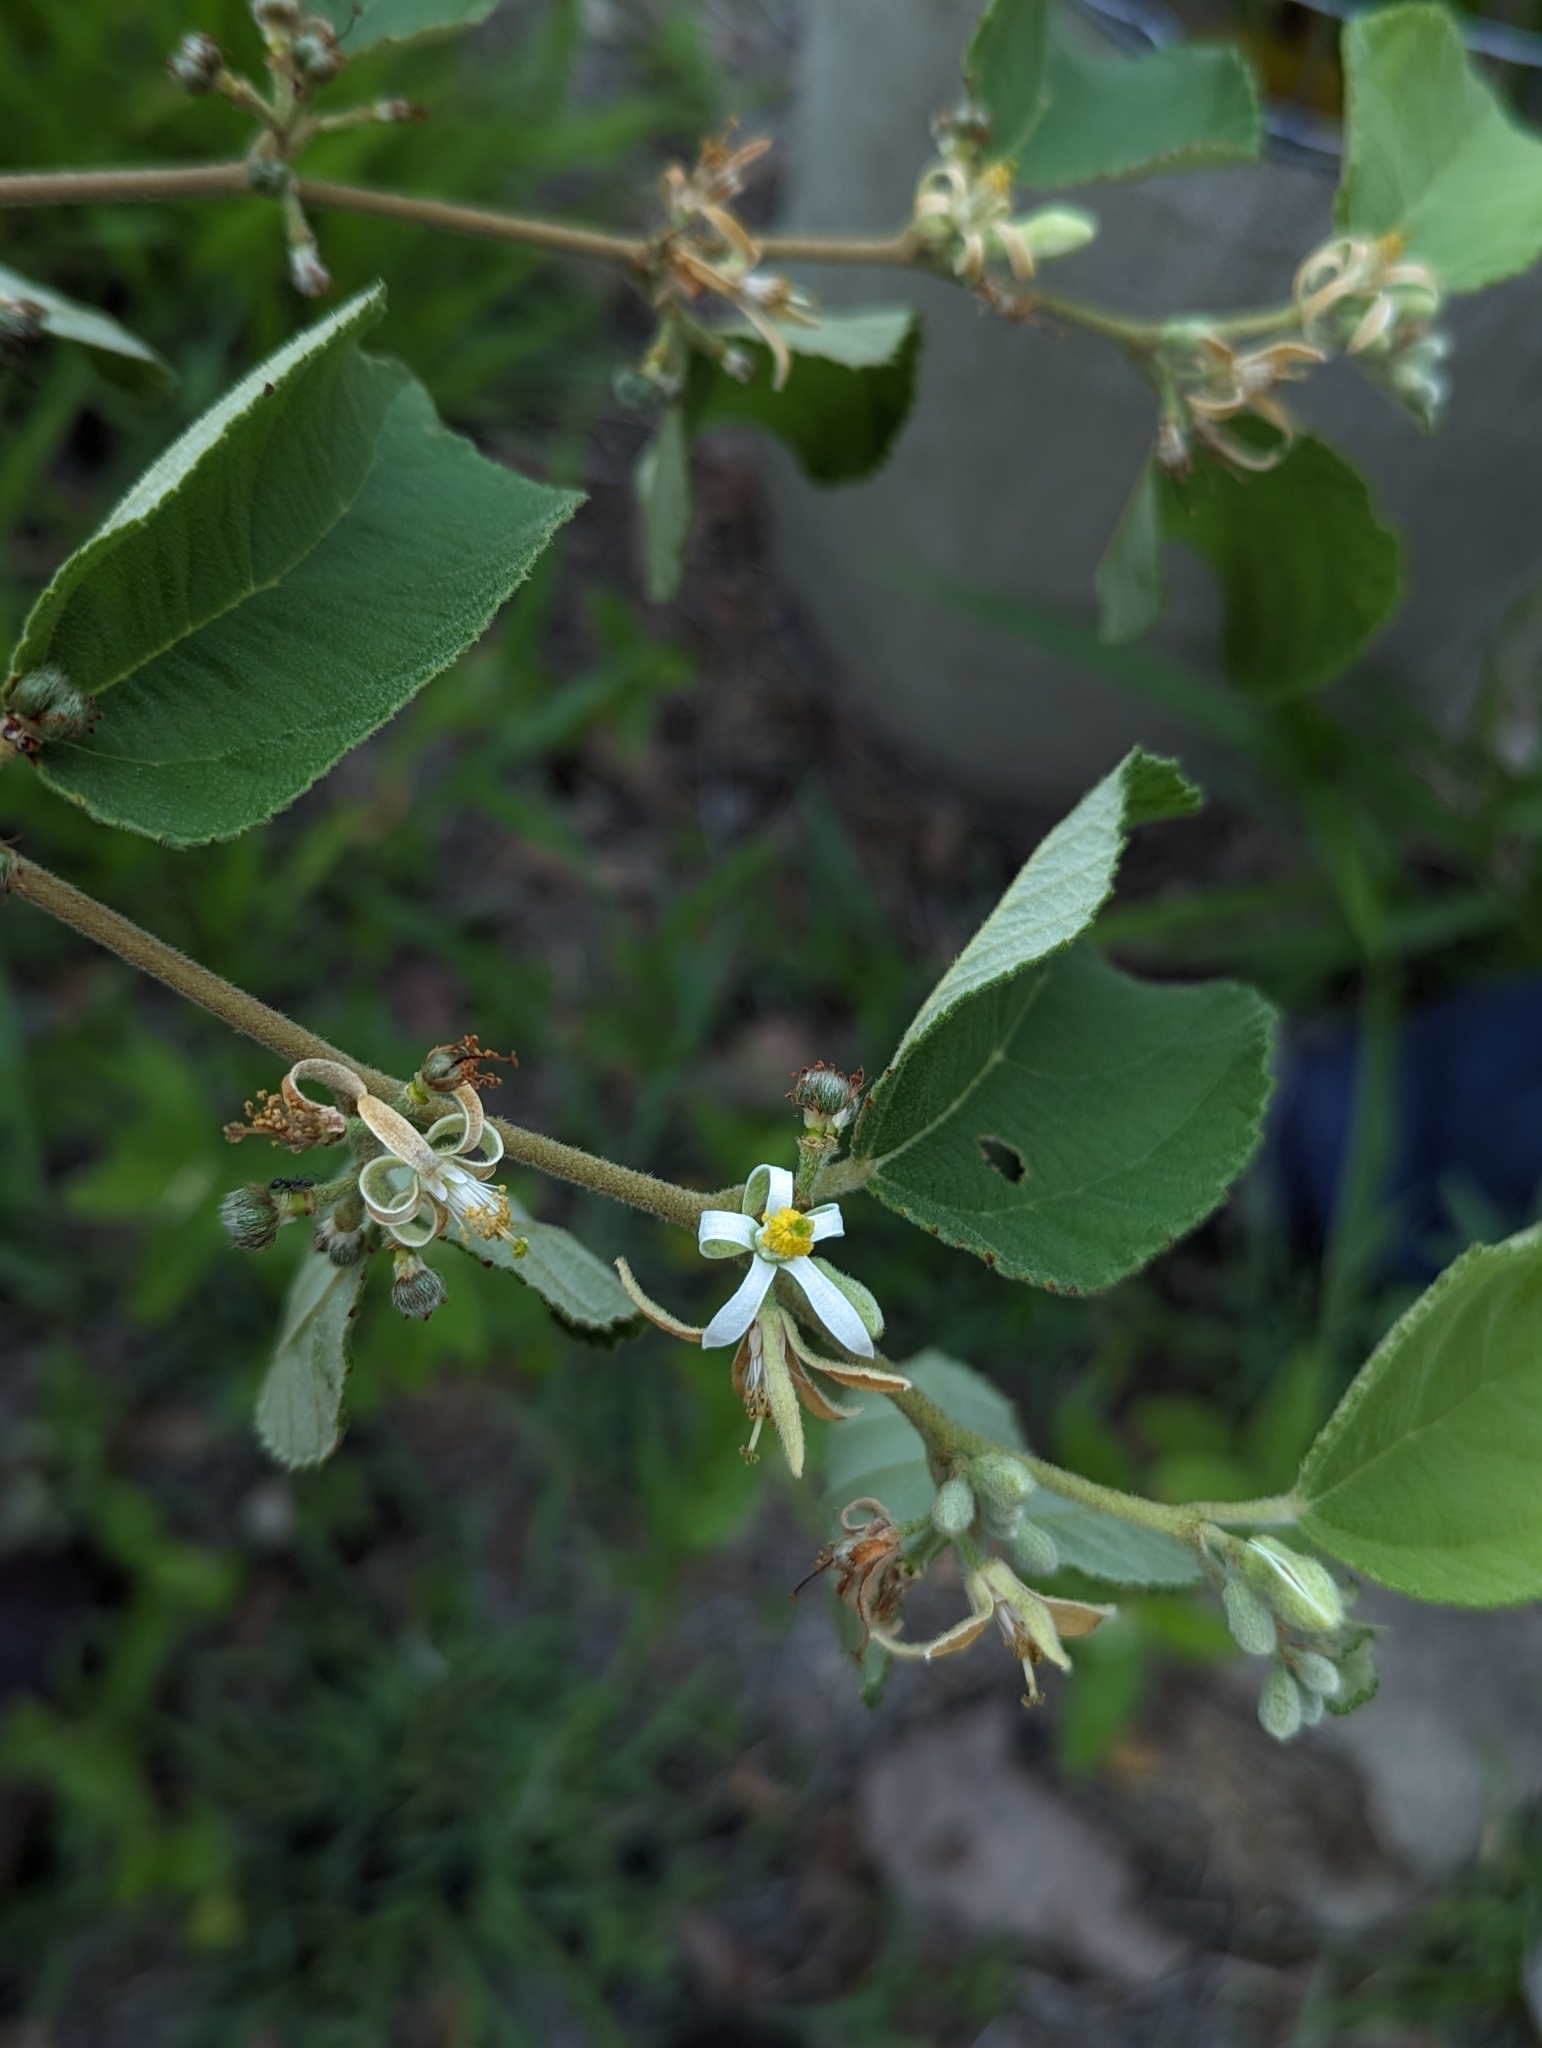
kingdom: Plantae
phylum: Tracheophyta
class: Magnoliopsida
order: Malvales
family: Malvaceae
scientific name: Malvaceae
